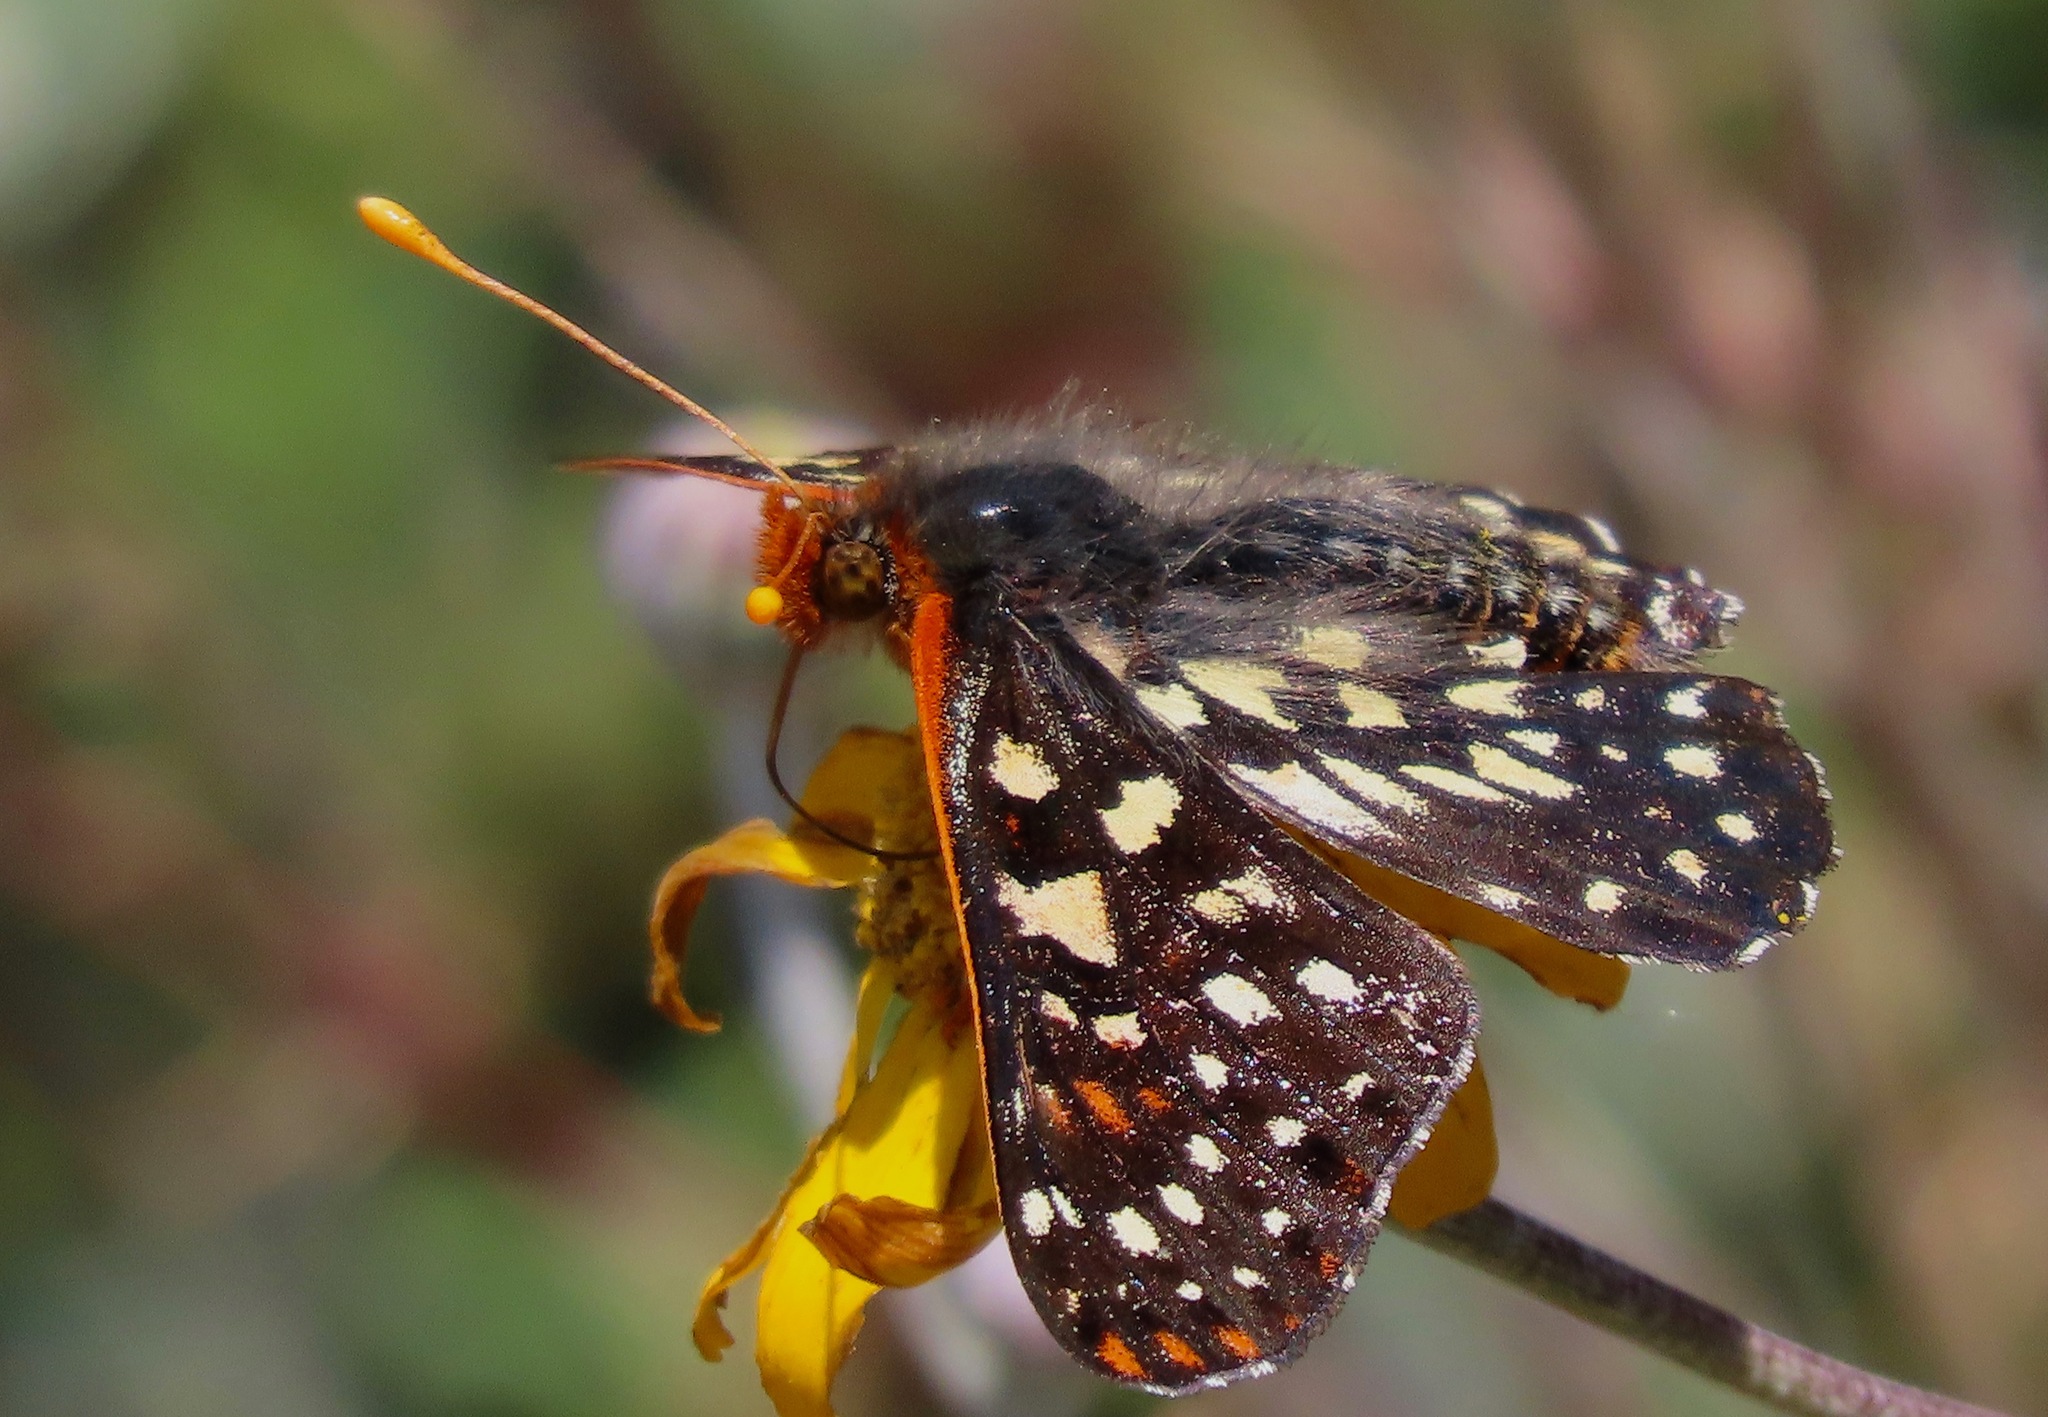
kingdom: Animalia
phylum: Arthropoda
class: Insecta
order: Lepidoptera
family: Nymphalidae
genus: Occidryas
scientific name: Occidryas chalcedona
